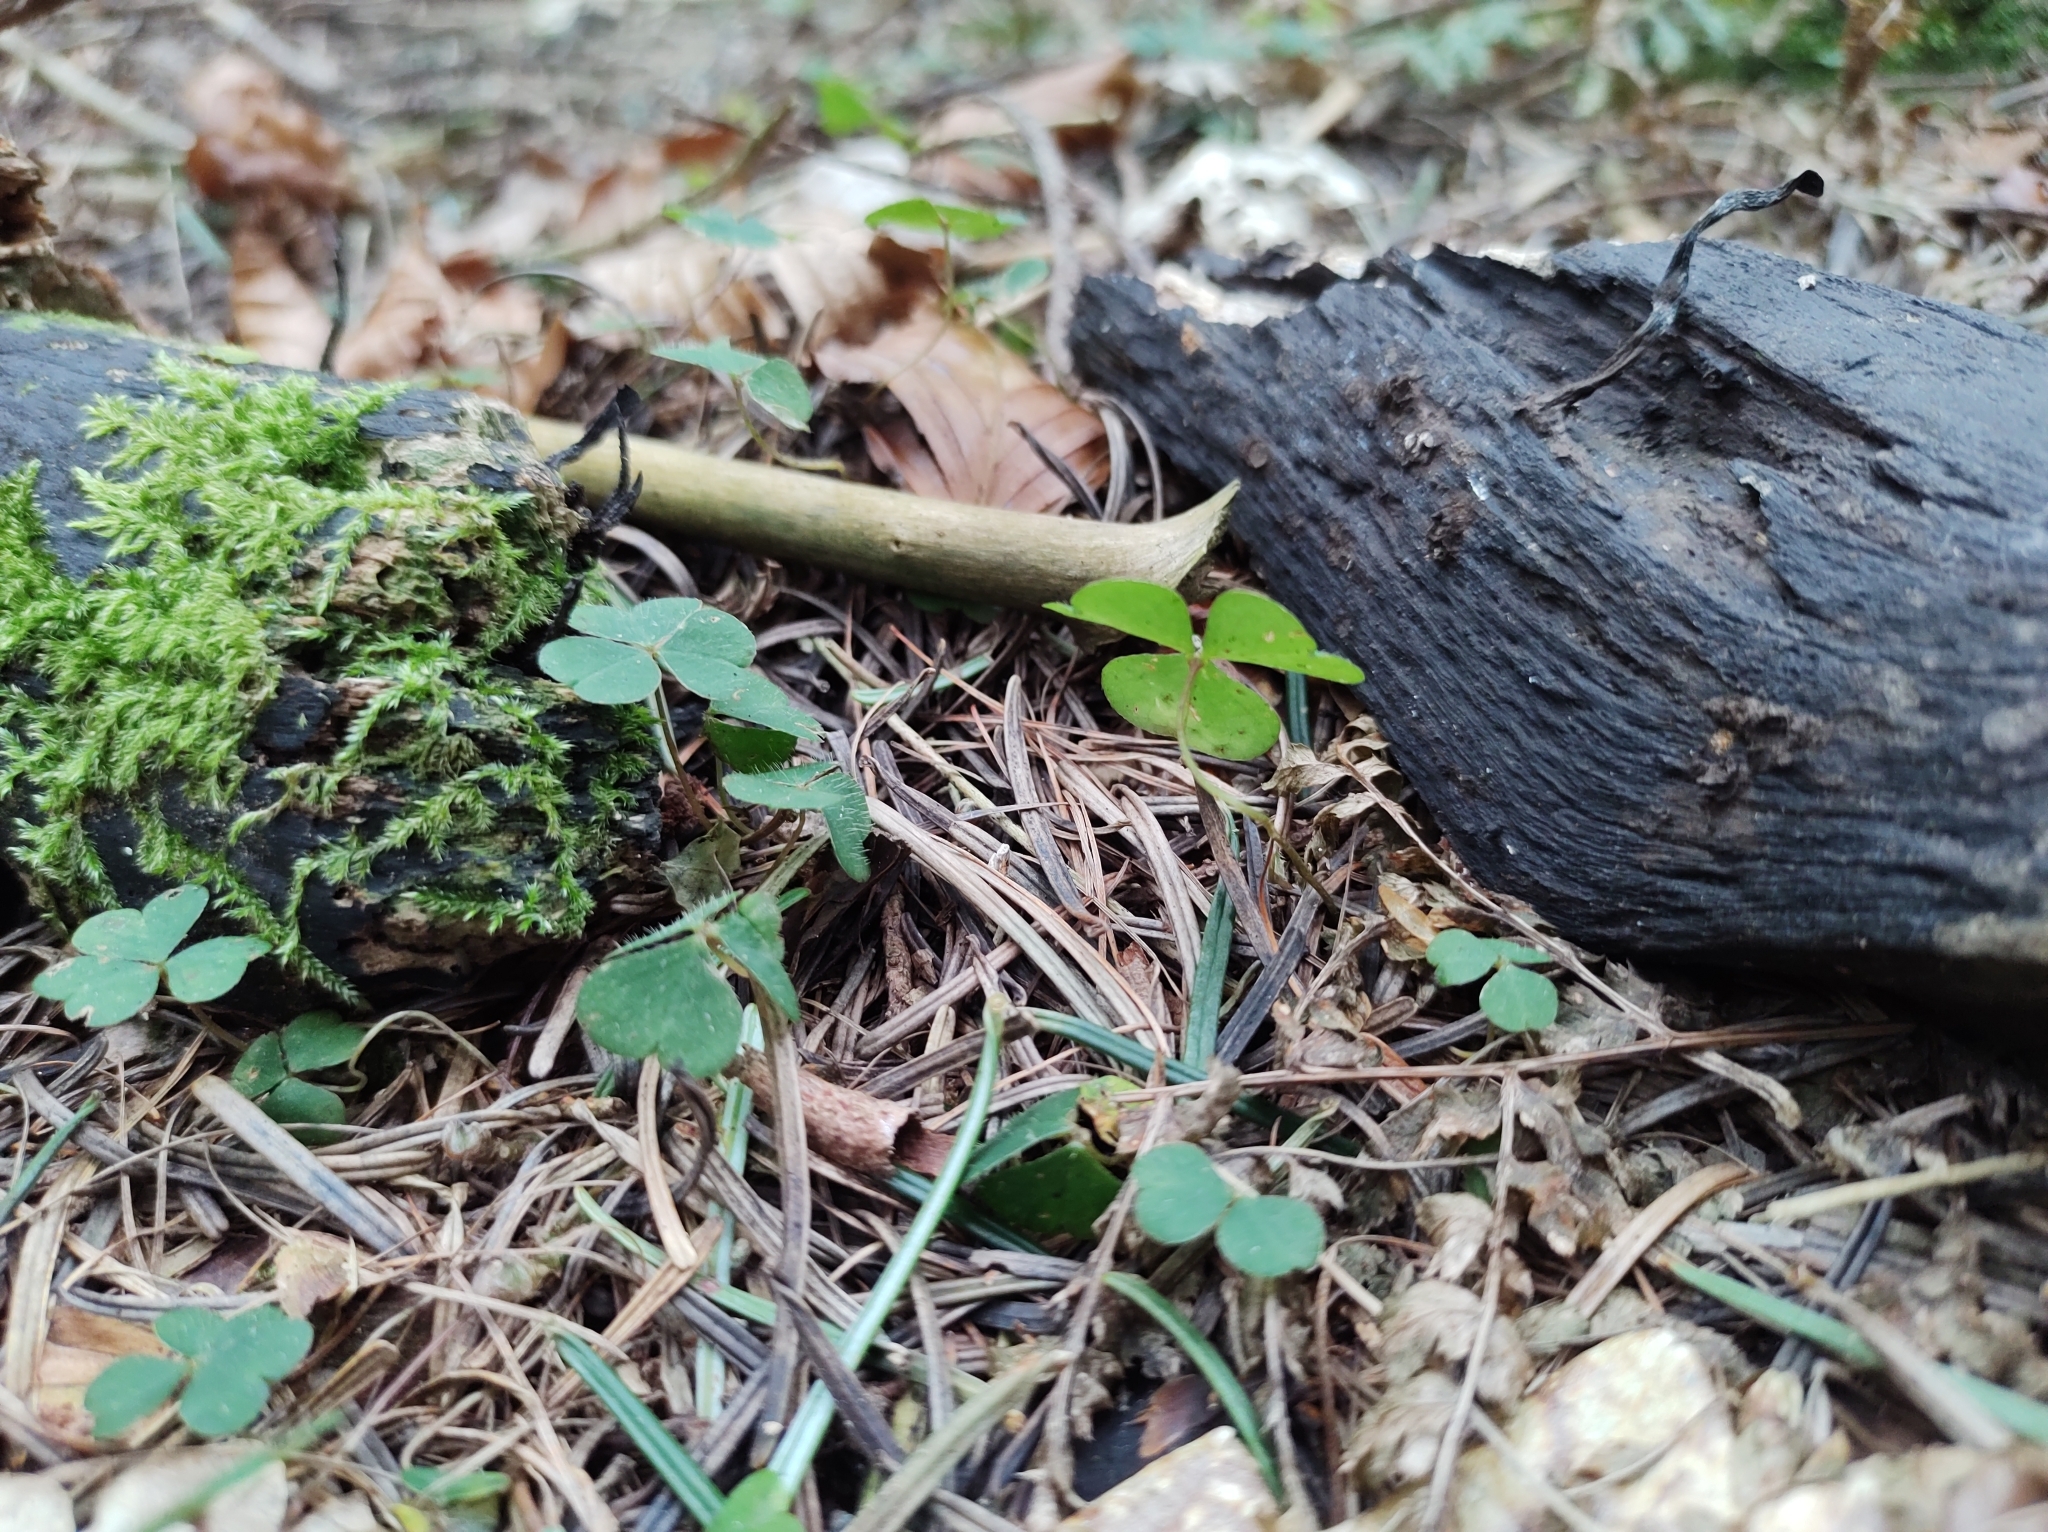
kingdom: Plantae
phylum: Tracheophyta
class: Magnoliopsida
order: Oxalidales
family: Oxalidaceae
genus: Oxalis
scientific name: Oxalis acetosella
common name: Wood-sorrel
